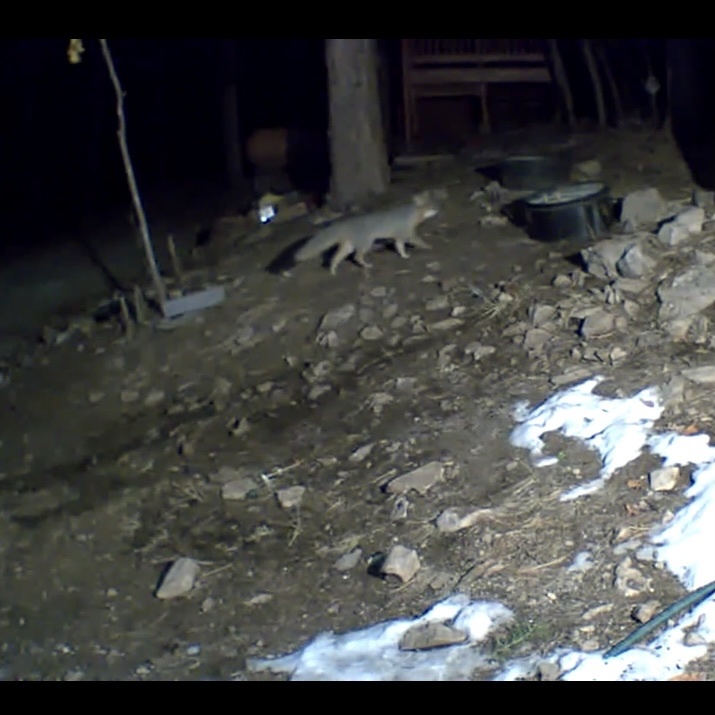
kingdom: Animalia
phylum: Chordata
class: Mammalia
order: Carnivora
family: Canidae
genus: Urocyon
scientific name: Urocyon cinereoargenteus
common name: Gray fox
